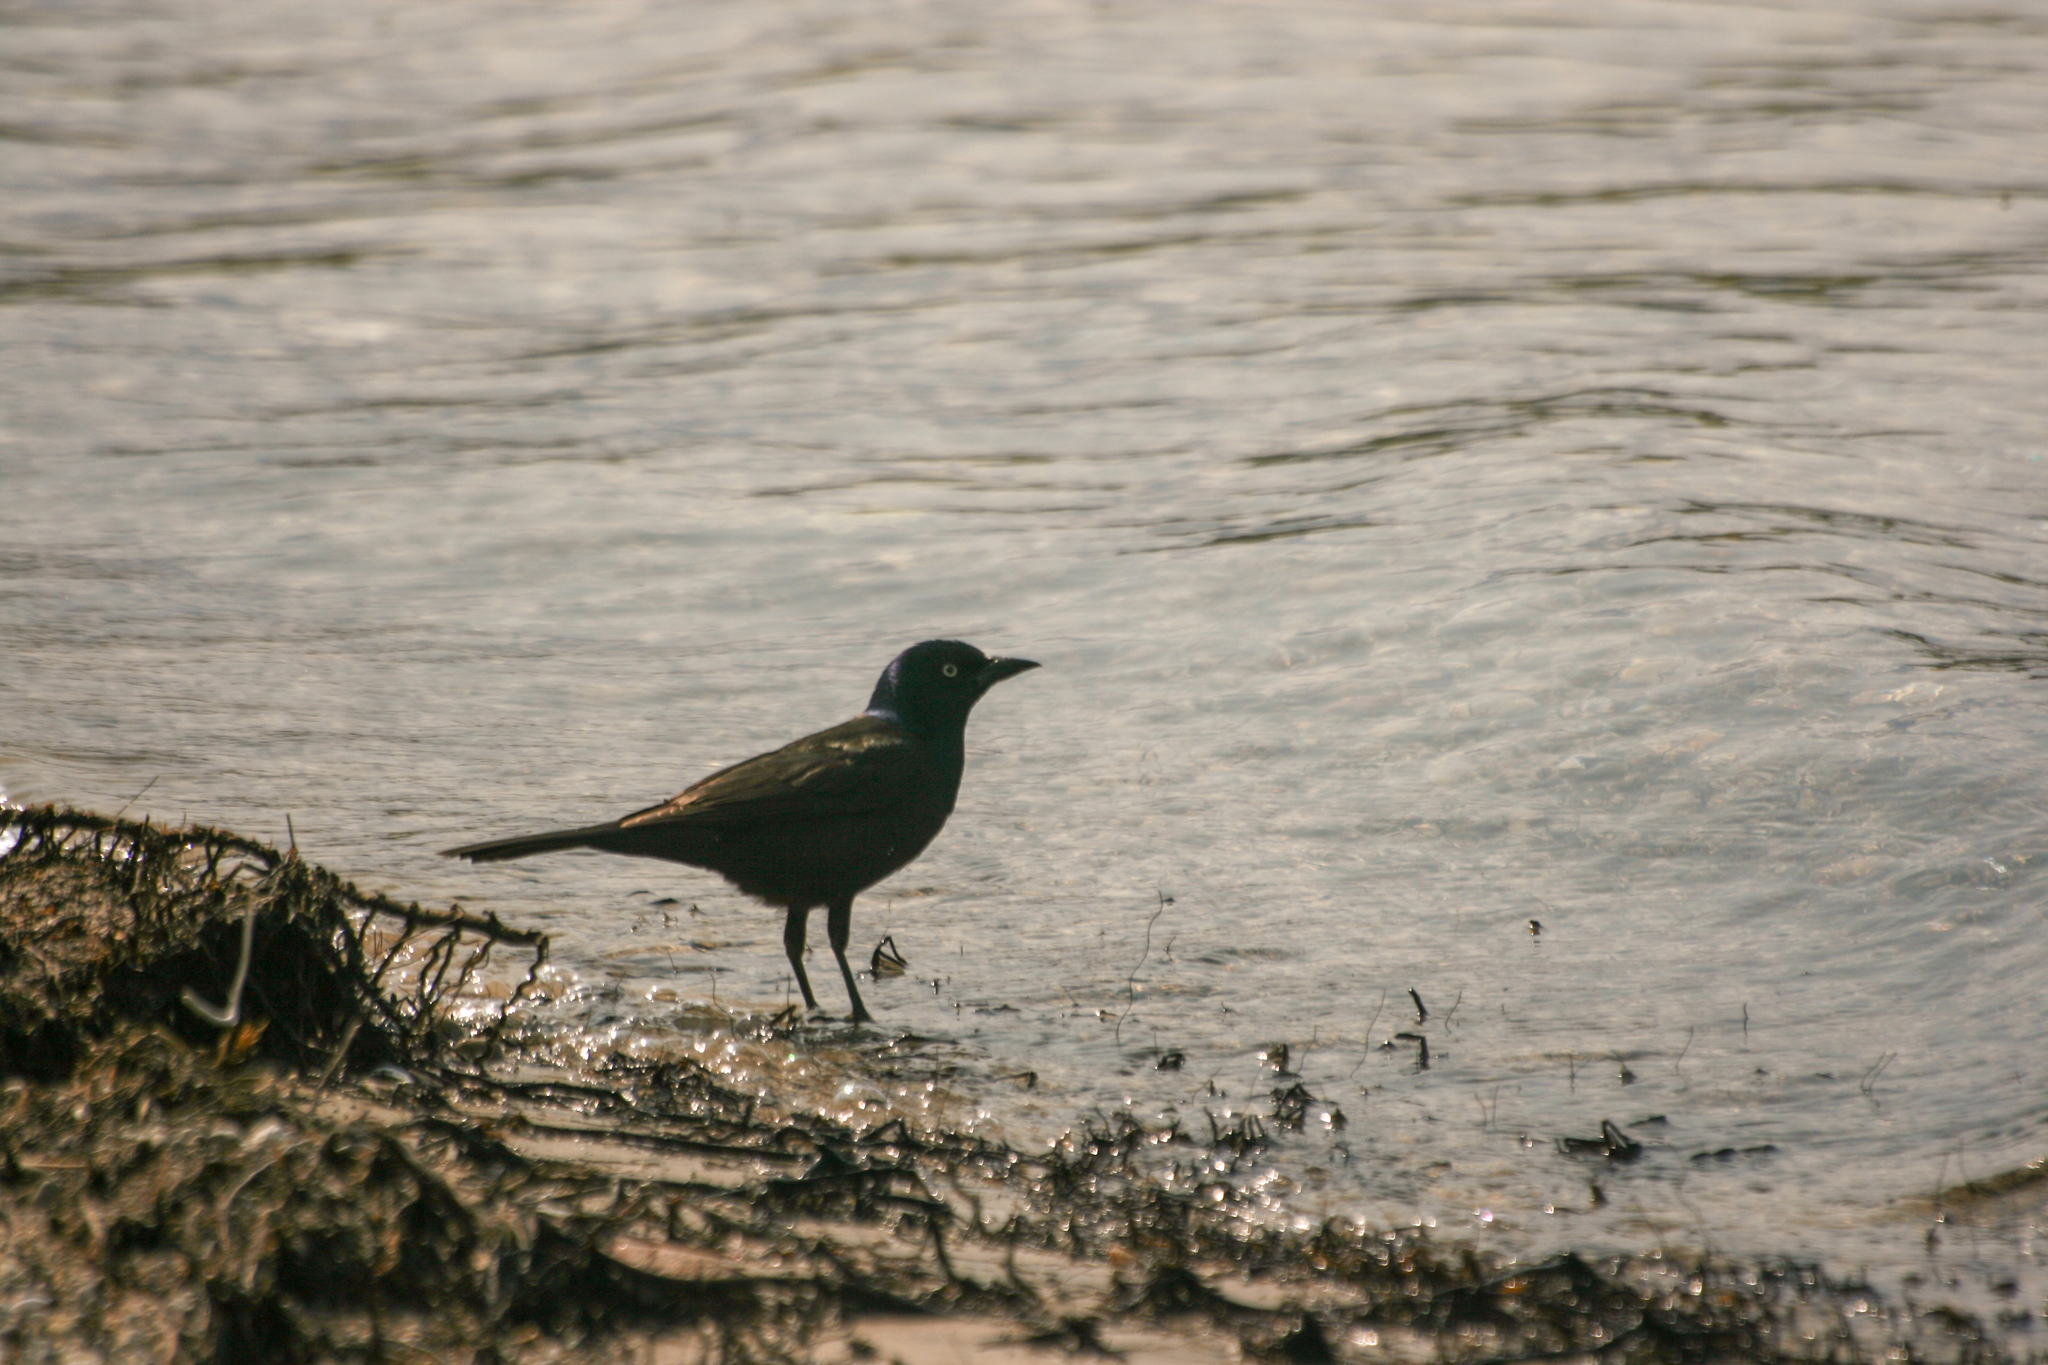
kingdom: Animalia
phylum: Chordata
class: Aves
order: Passeriformes
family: Icteridae
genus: Quiscalus
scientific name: Quiscalus quiscula
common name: Common grackle
